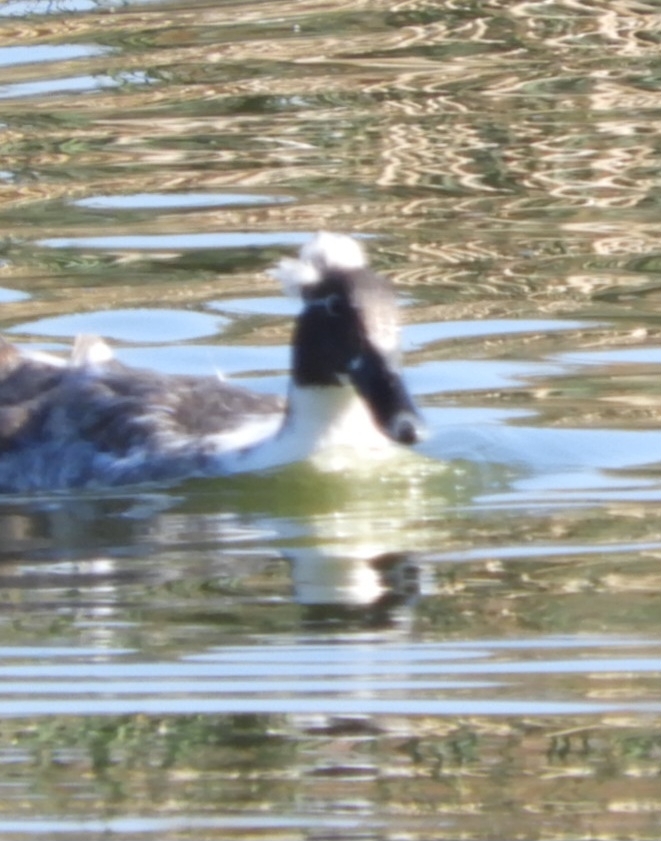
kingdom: Animalia
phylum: Chordata
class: Aves
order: Anseriformes
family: Anatidae
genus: Anas
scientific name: Anas platyrhynchos
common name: Mallard
